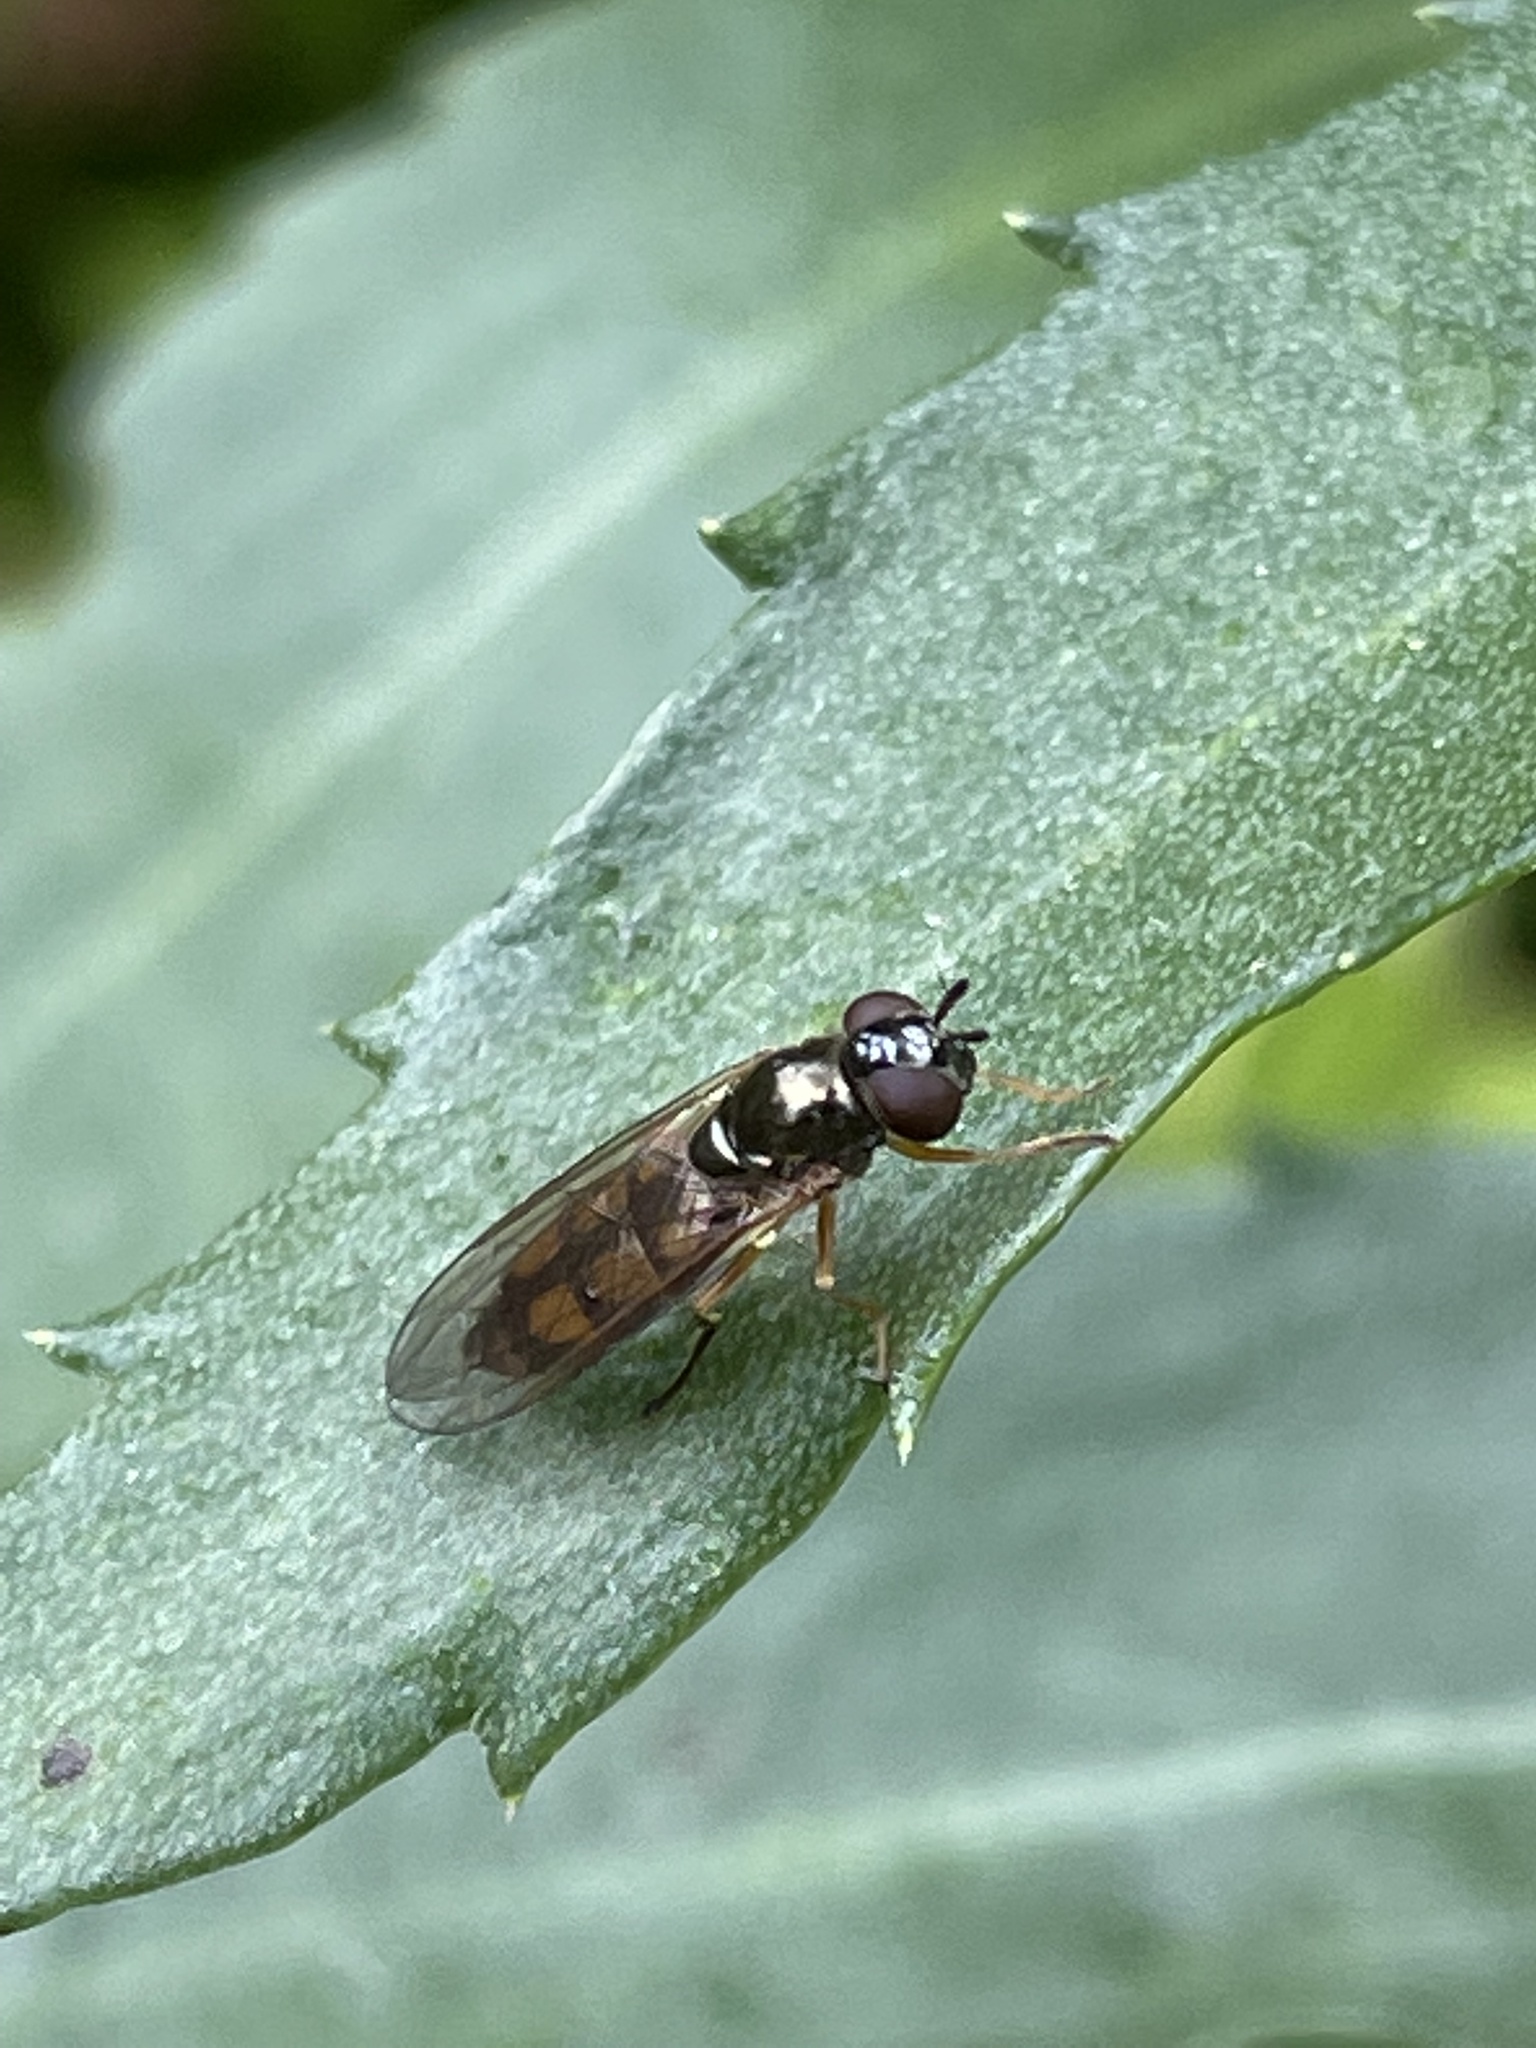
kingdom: Animalia
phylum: Arthropoda
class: Insecta
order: Diptera
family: Syrphidae
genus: Melanostoma
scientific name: Melanostoma mellina
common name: Hover fly
